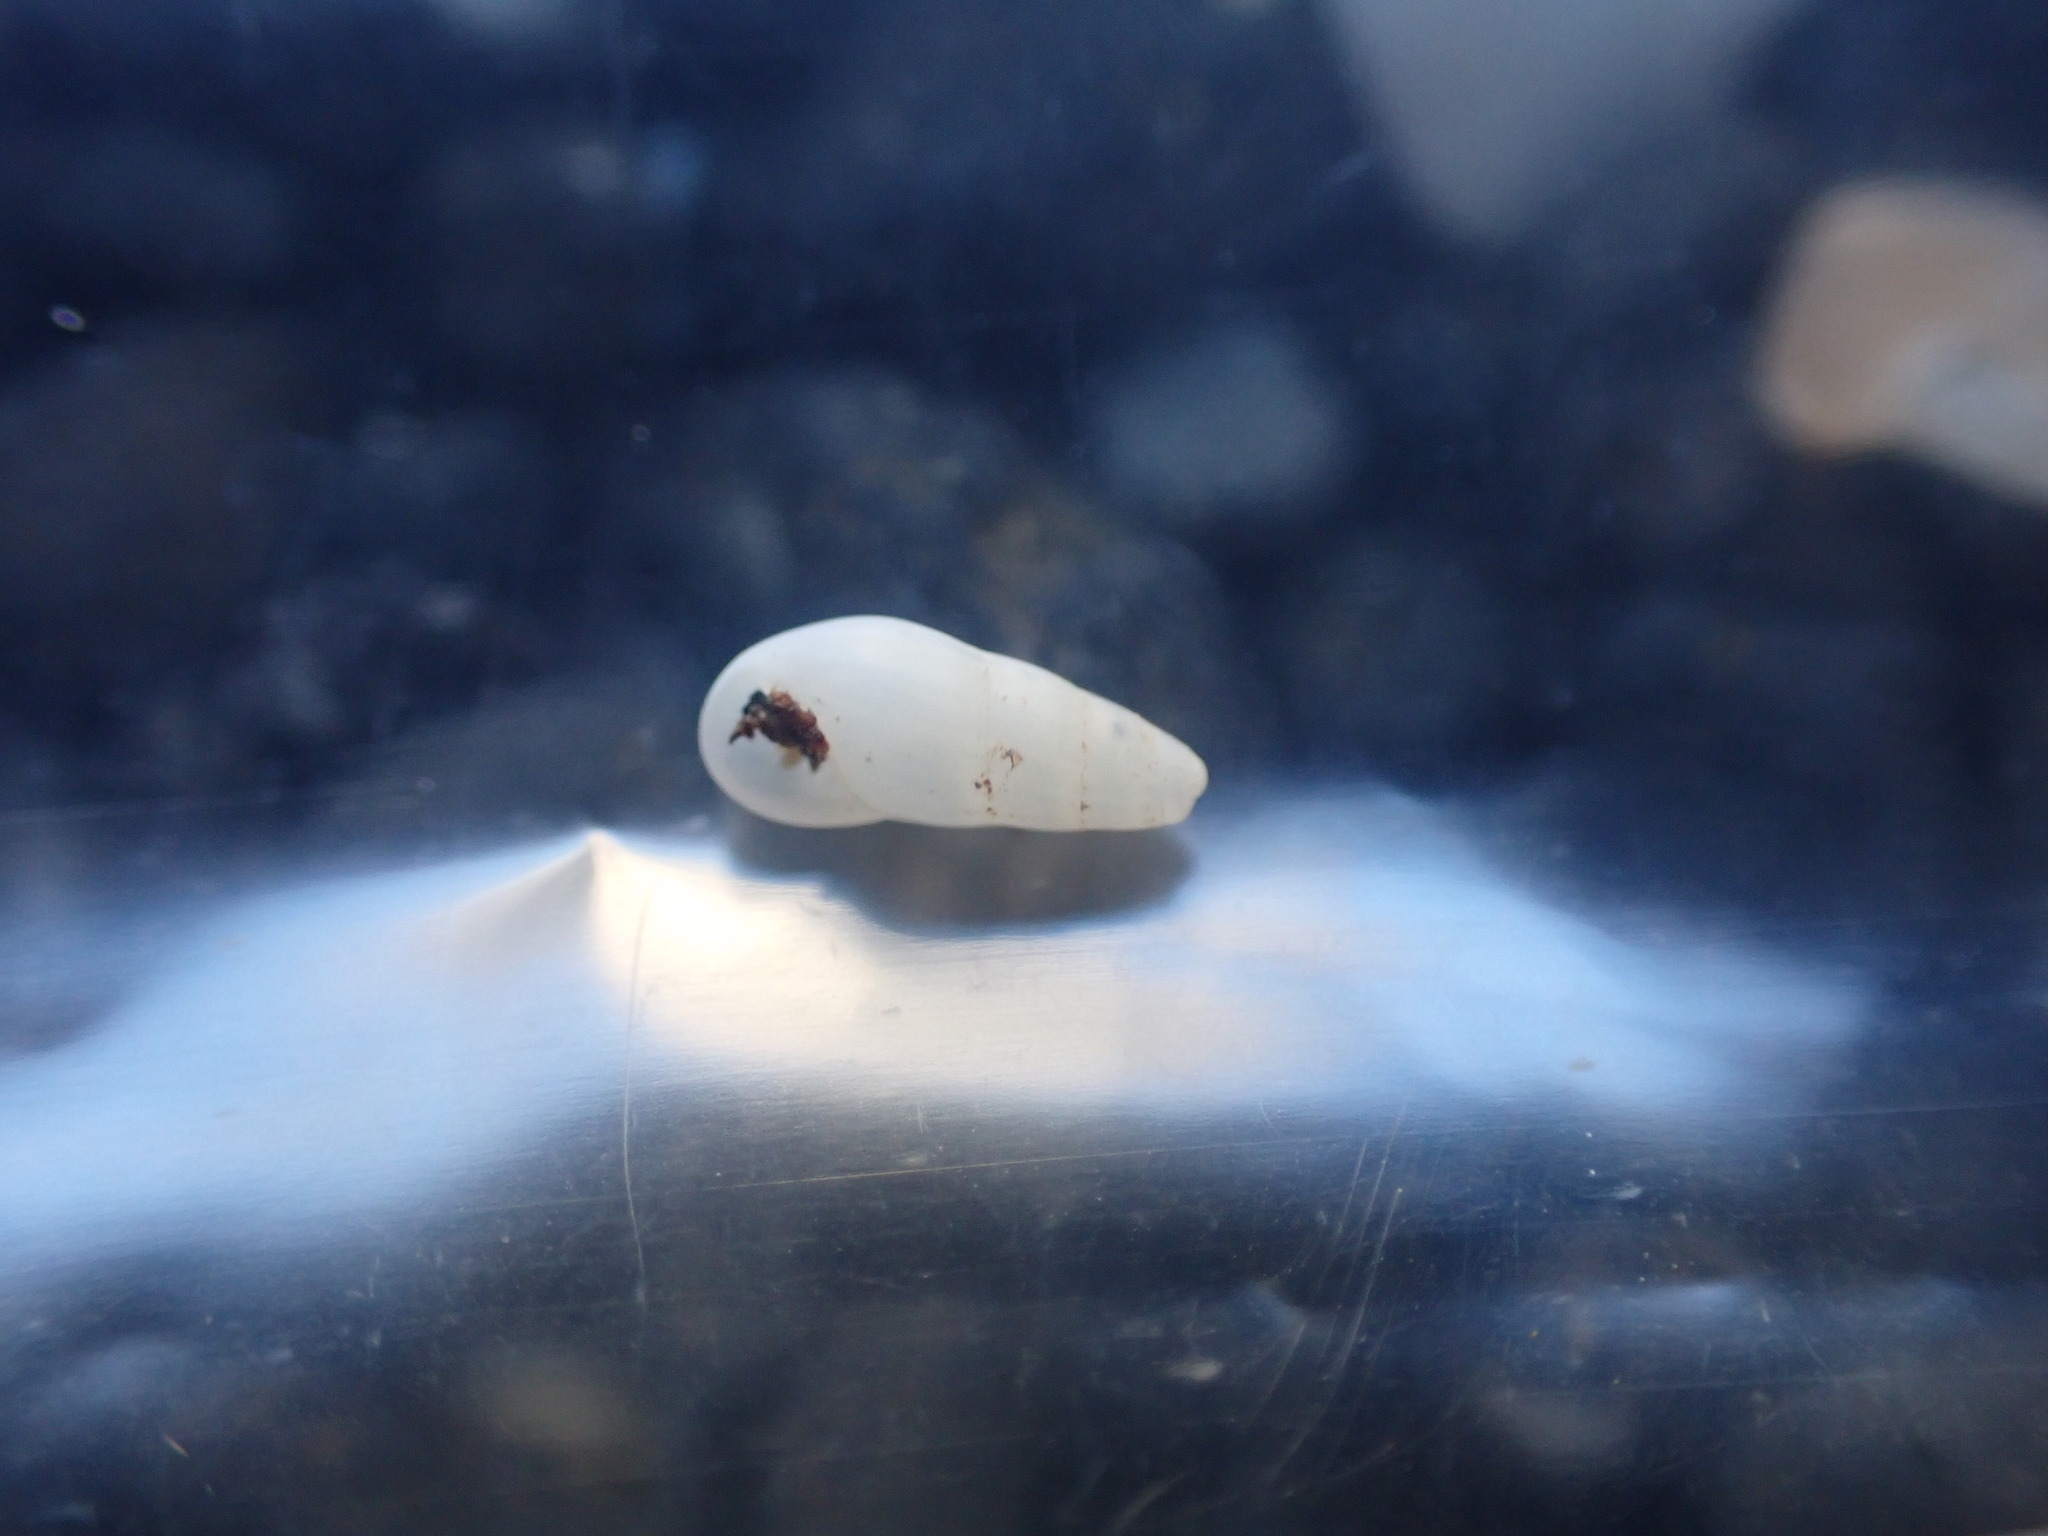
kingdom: Animalia
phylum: Mollusca
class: Gastropoda
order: Littorinimorpha
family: Rissoinidae
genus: Rissoina
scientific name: Rissoina chathamensis
